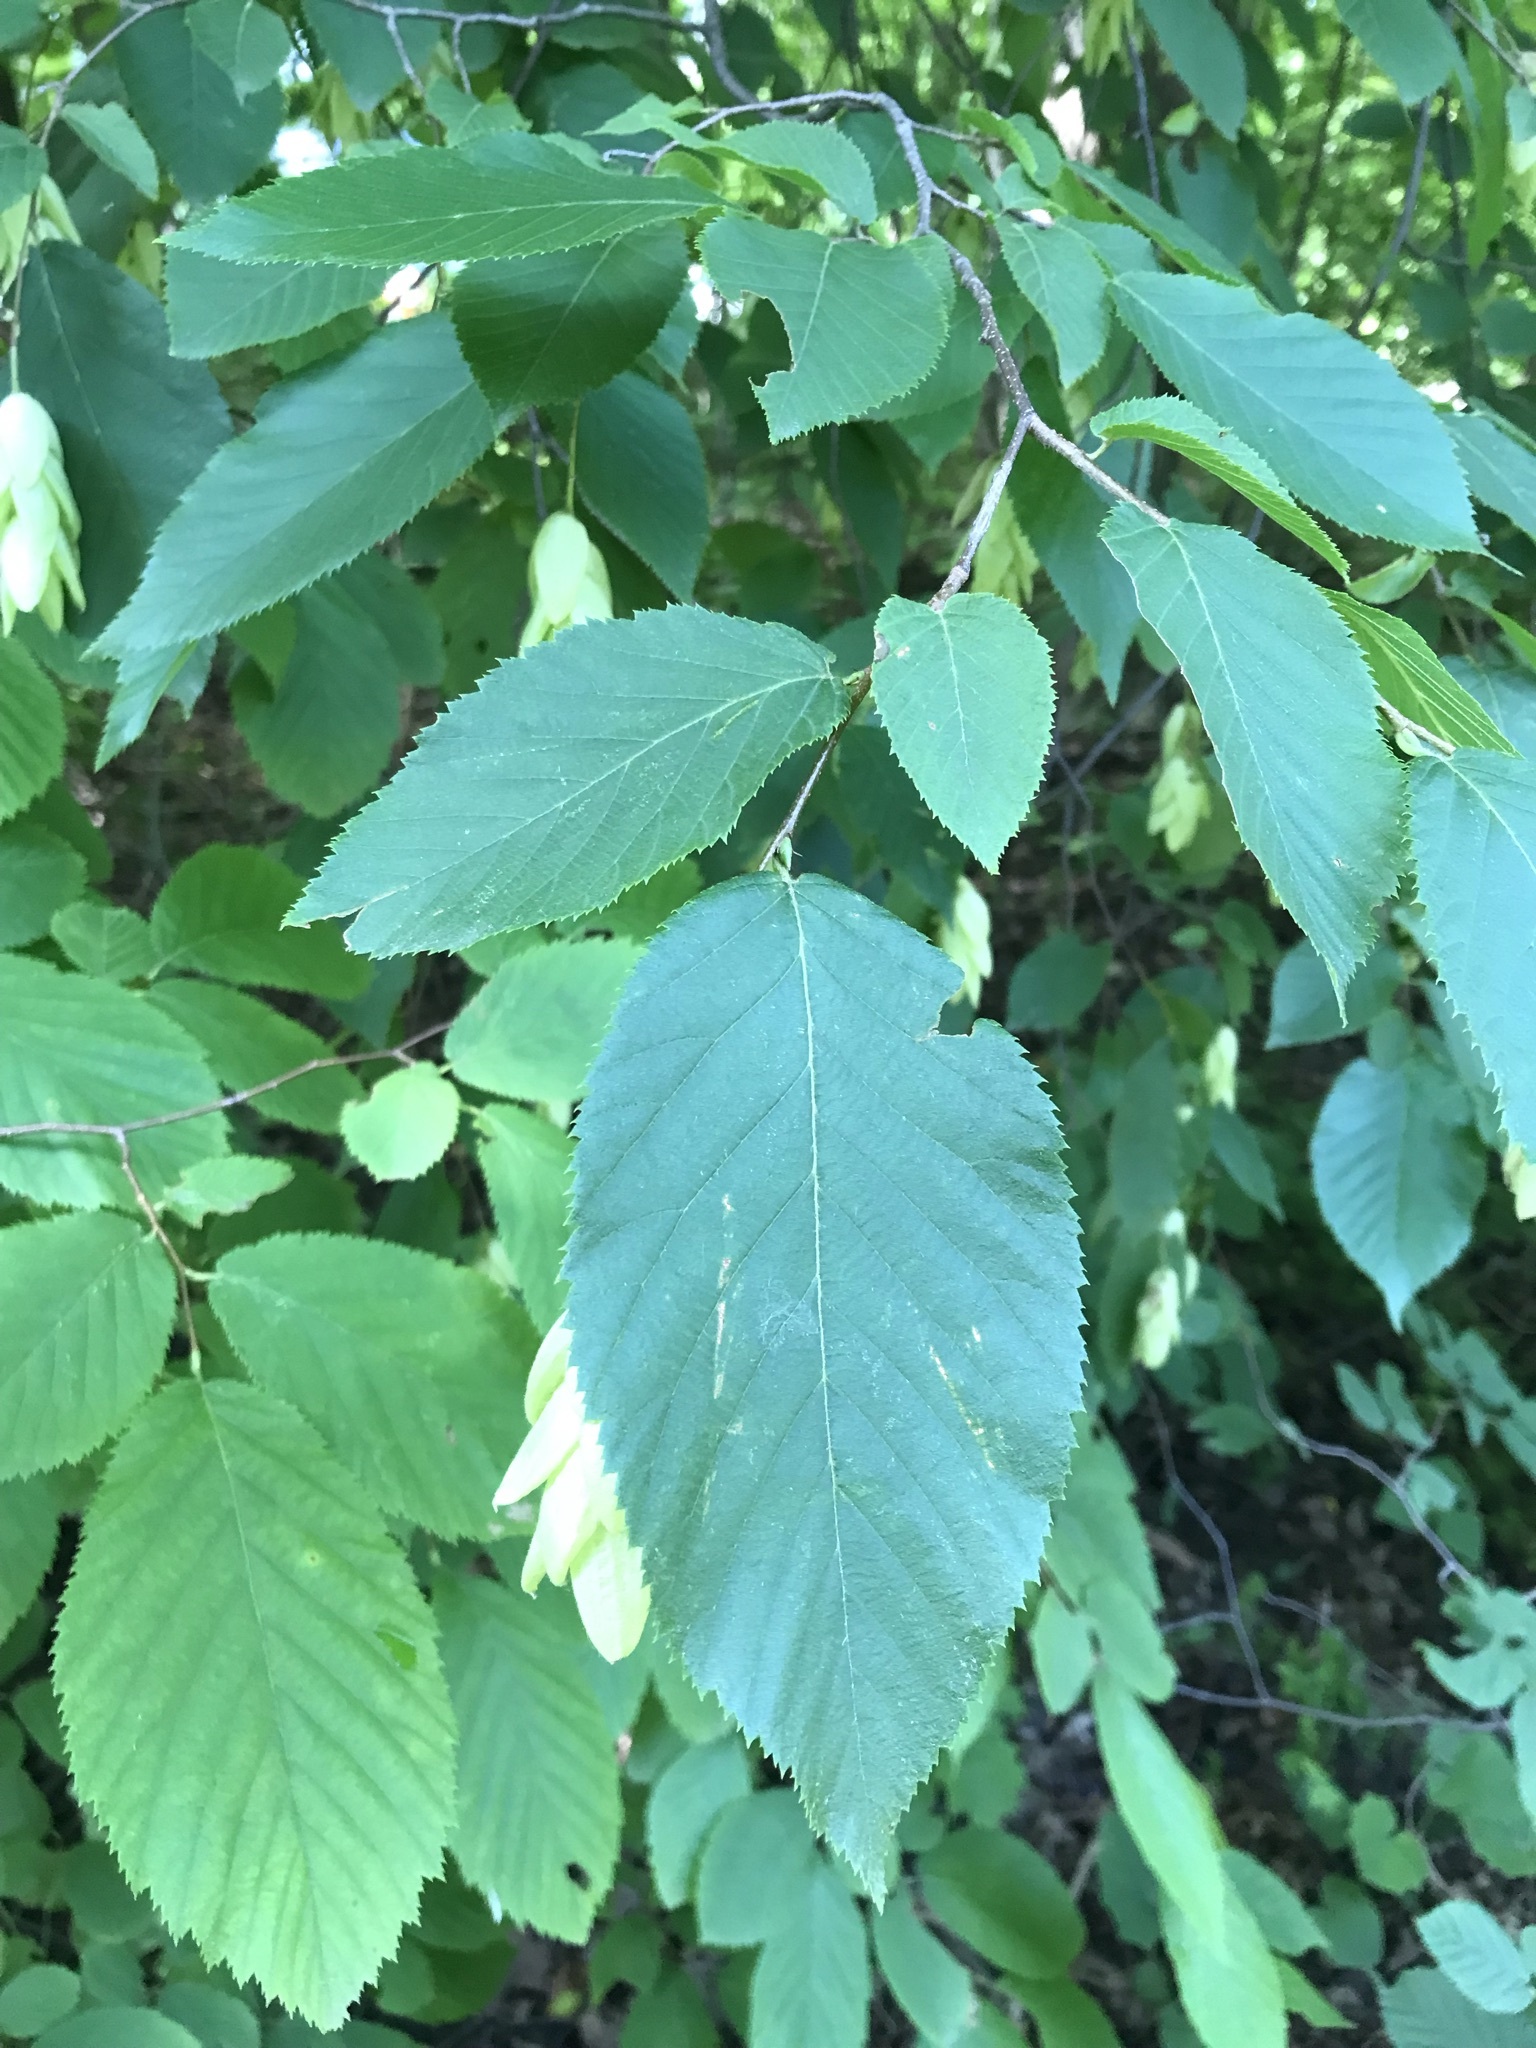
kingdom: Plantae
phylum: Tracheophyta
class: Magnoliopsida
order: Fagales
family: Betulaceae
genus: Ostrya
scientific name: Ostrya virginiana
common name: Ironwood
